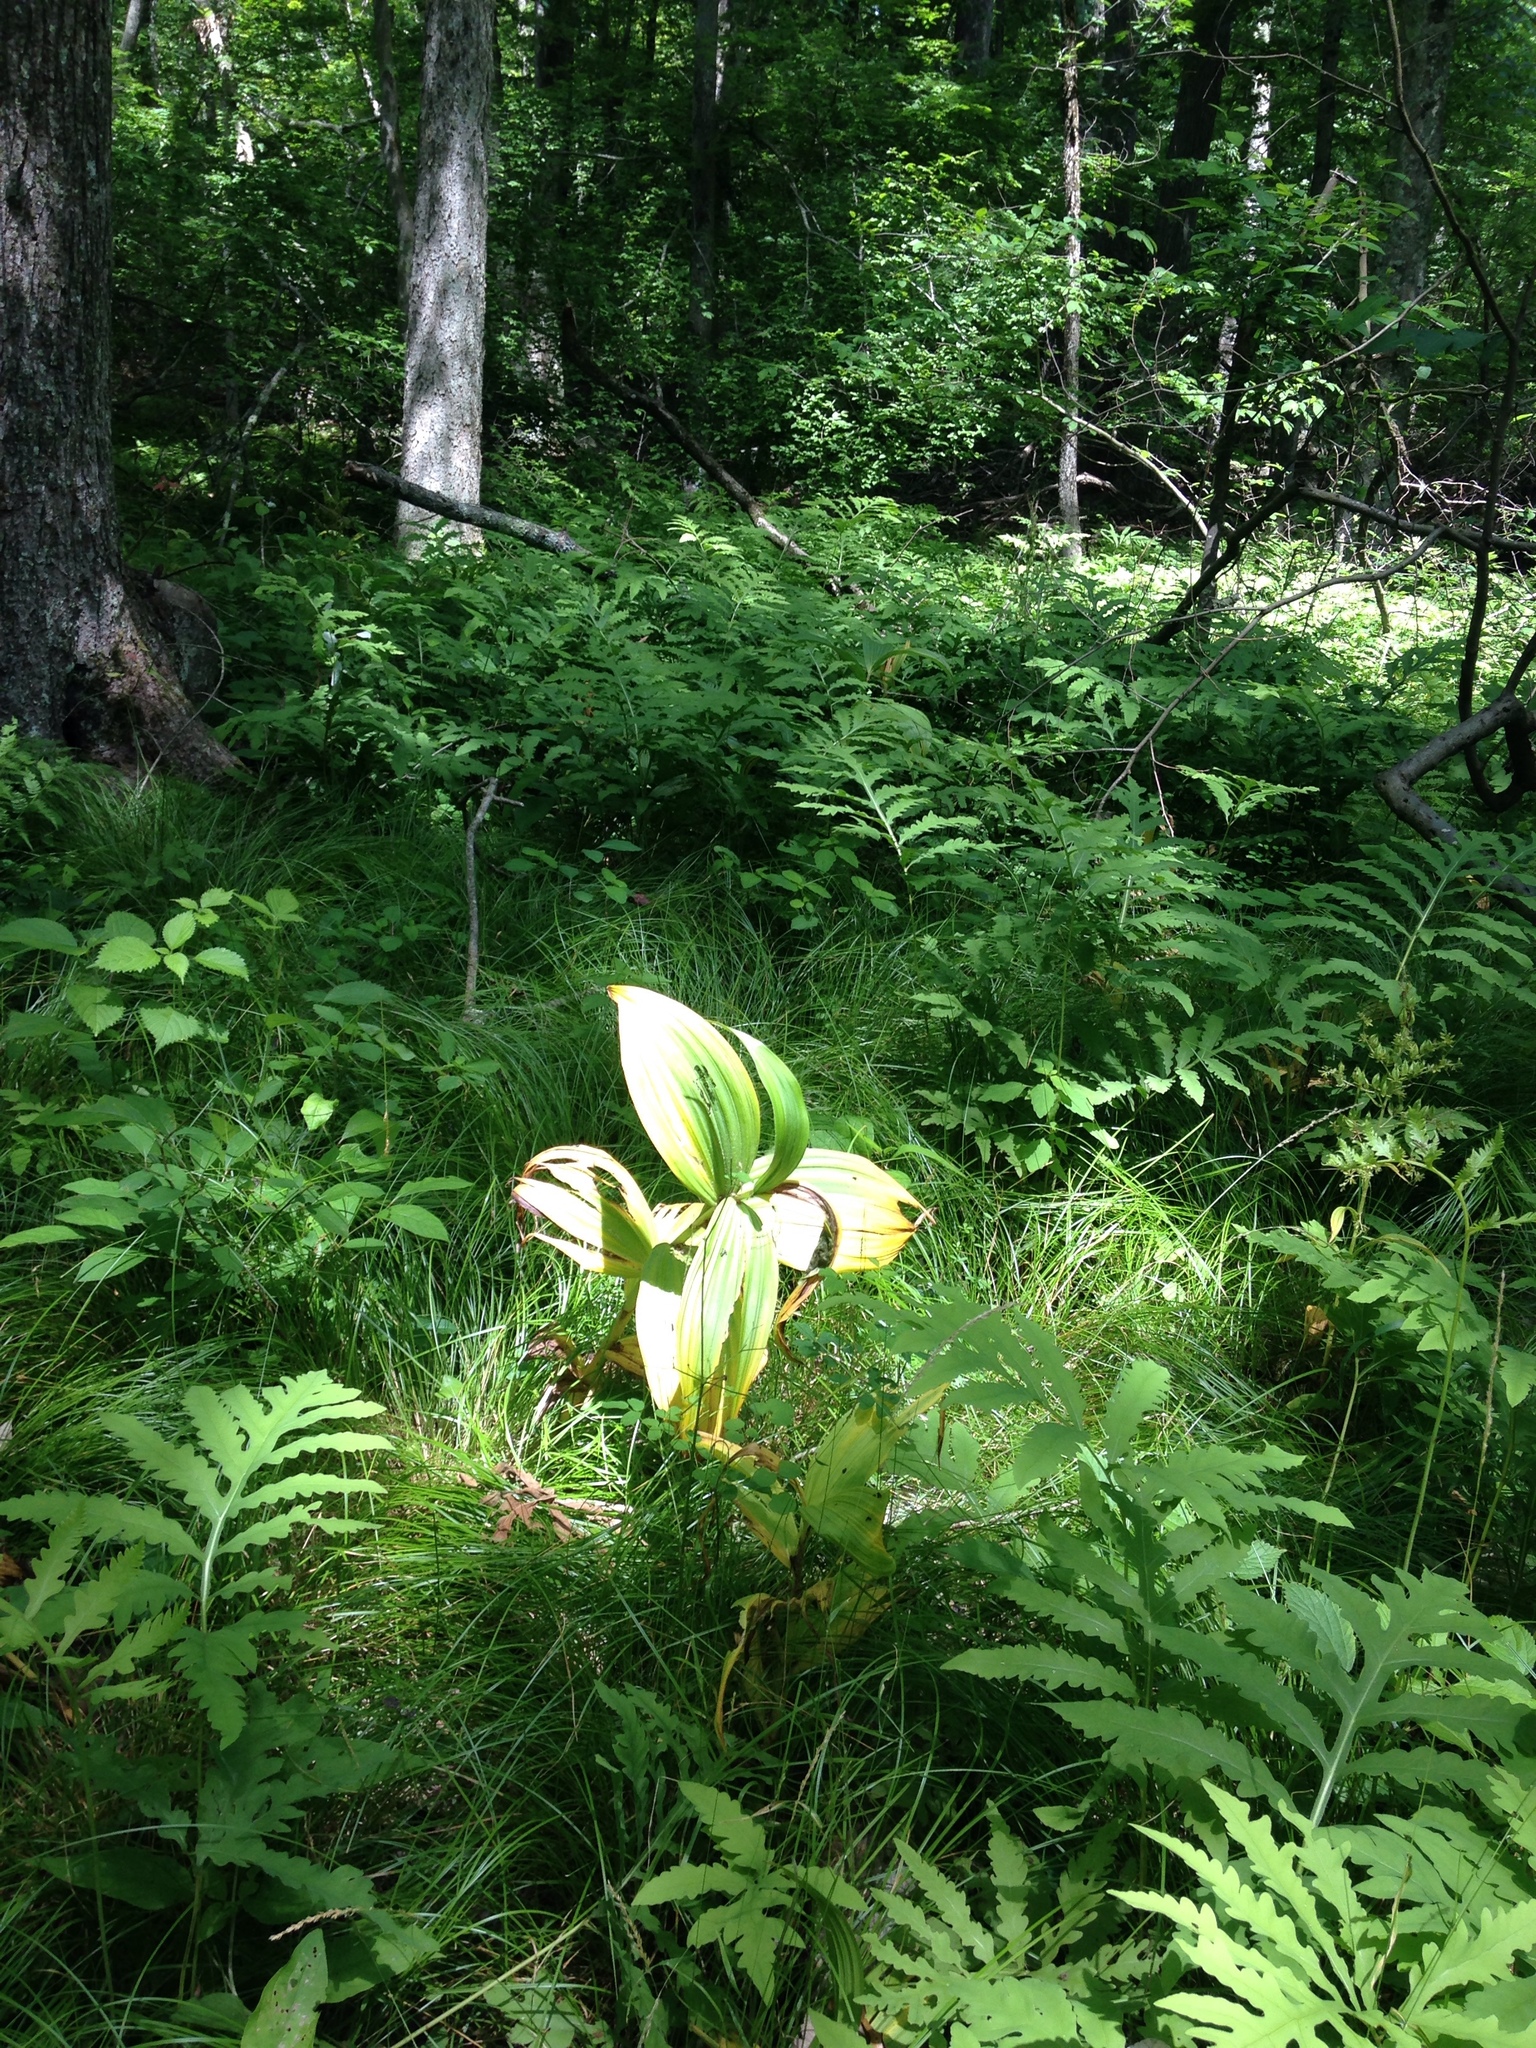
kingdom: Plantae
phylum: Tracheophyta
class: Liliopsida
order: Liliales
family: Melanthiaceae
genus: Veratrum
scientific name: Veratrum viride
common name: American false hellebore
